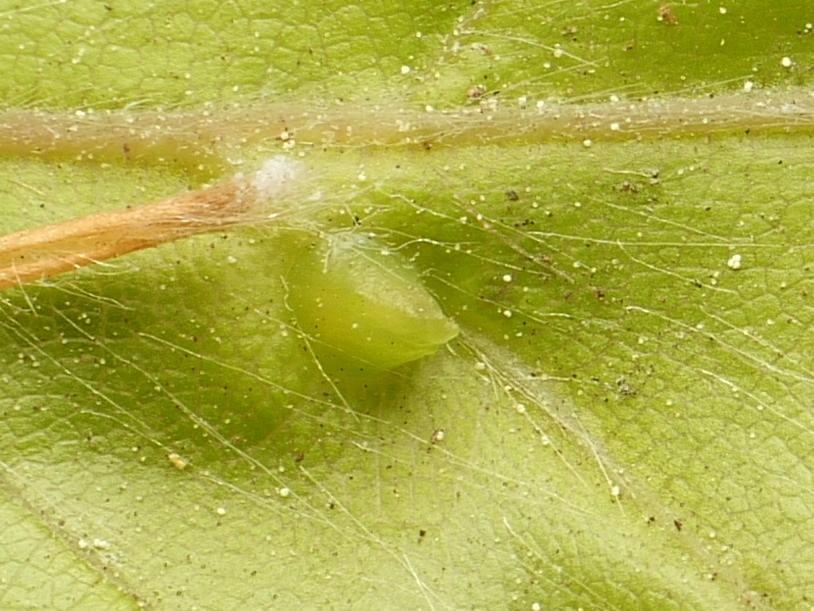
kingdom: Animalia
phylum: Arthropoda
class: Insecta
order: Diptera
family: Cecidomyiidae
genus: Mikiola
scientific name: Mikiola fagi
